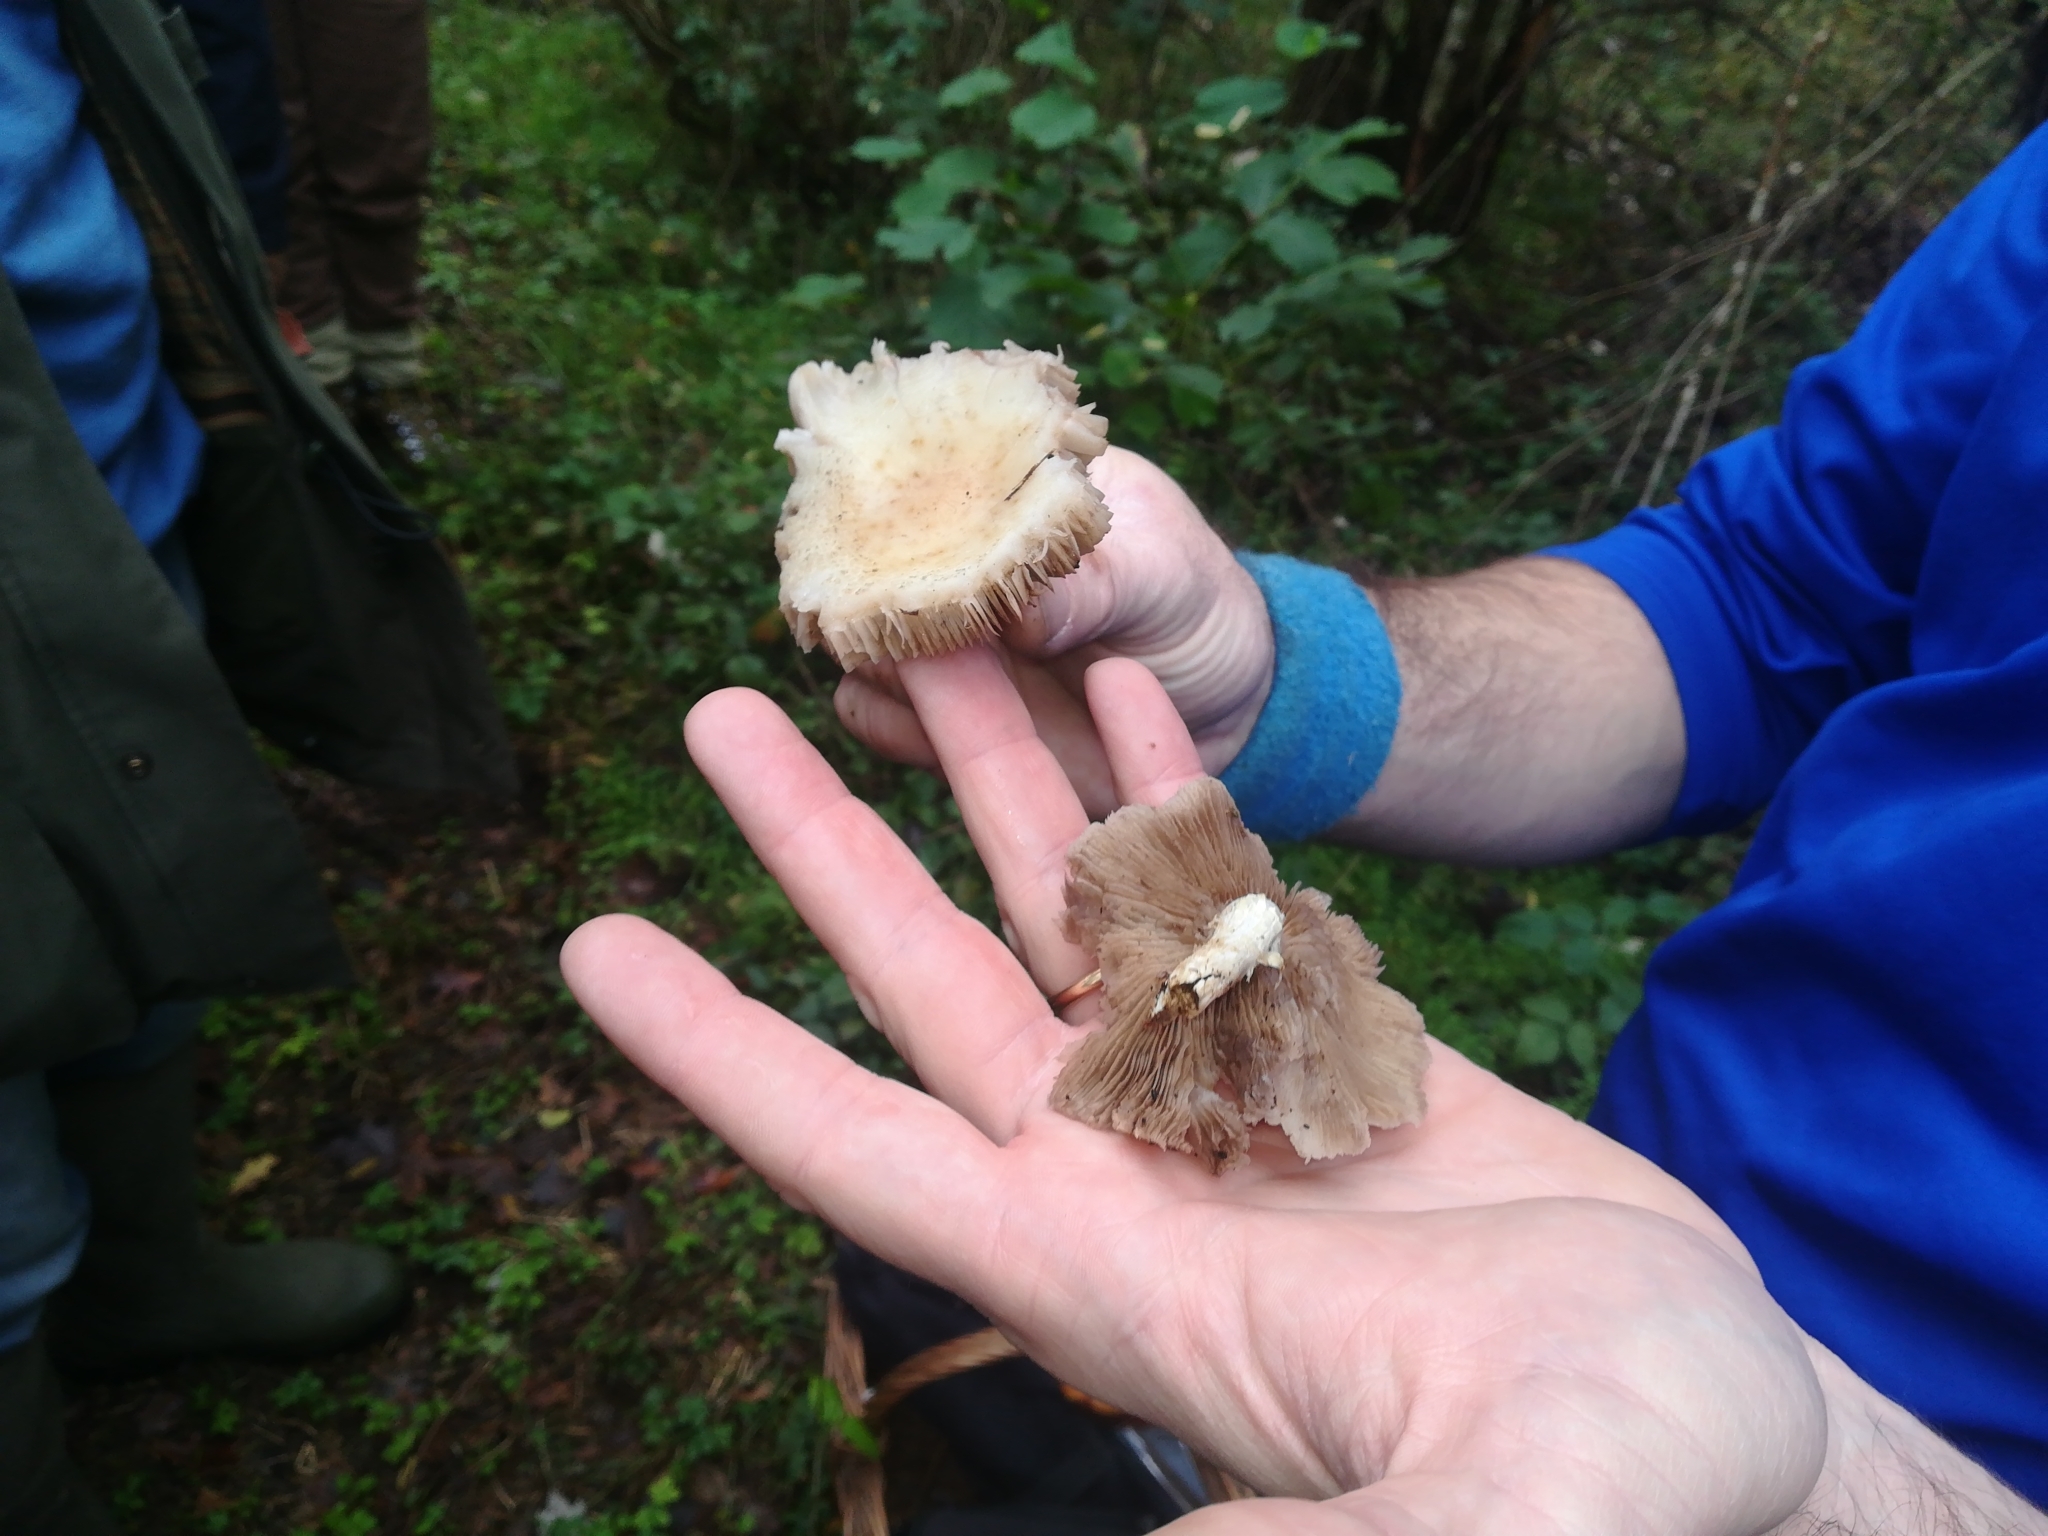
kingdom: Fungi
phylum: Basidiomycota
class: Agaricomycetes
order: Agaricales
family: Tubariaceae
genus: Cyclocybe
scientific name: Cyclocybe cylindracea
